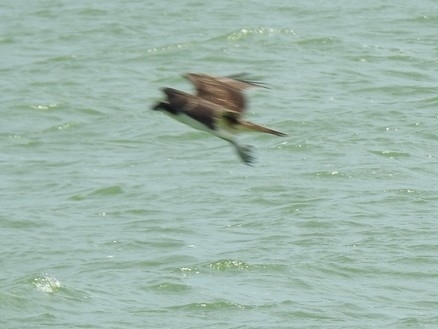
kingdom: Animalia
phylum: Chordata
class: Aves
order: Accipitriformes
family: Pandionidae
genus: Pandion
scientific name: Pandion haliaetus
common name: Osprey
